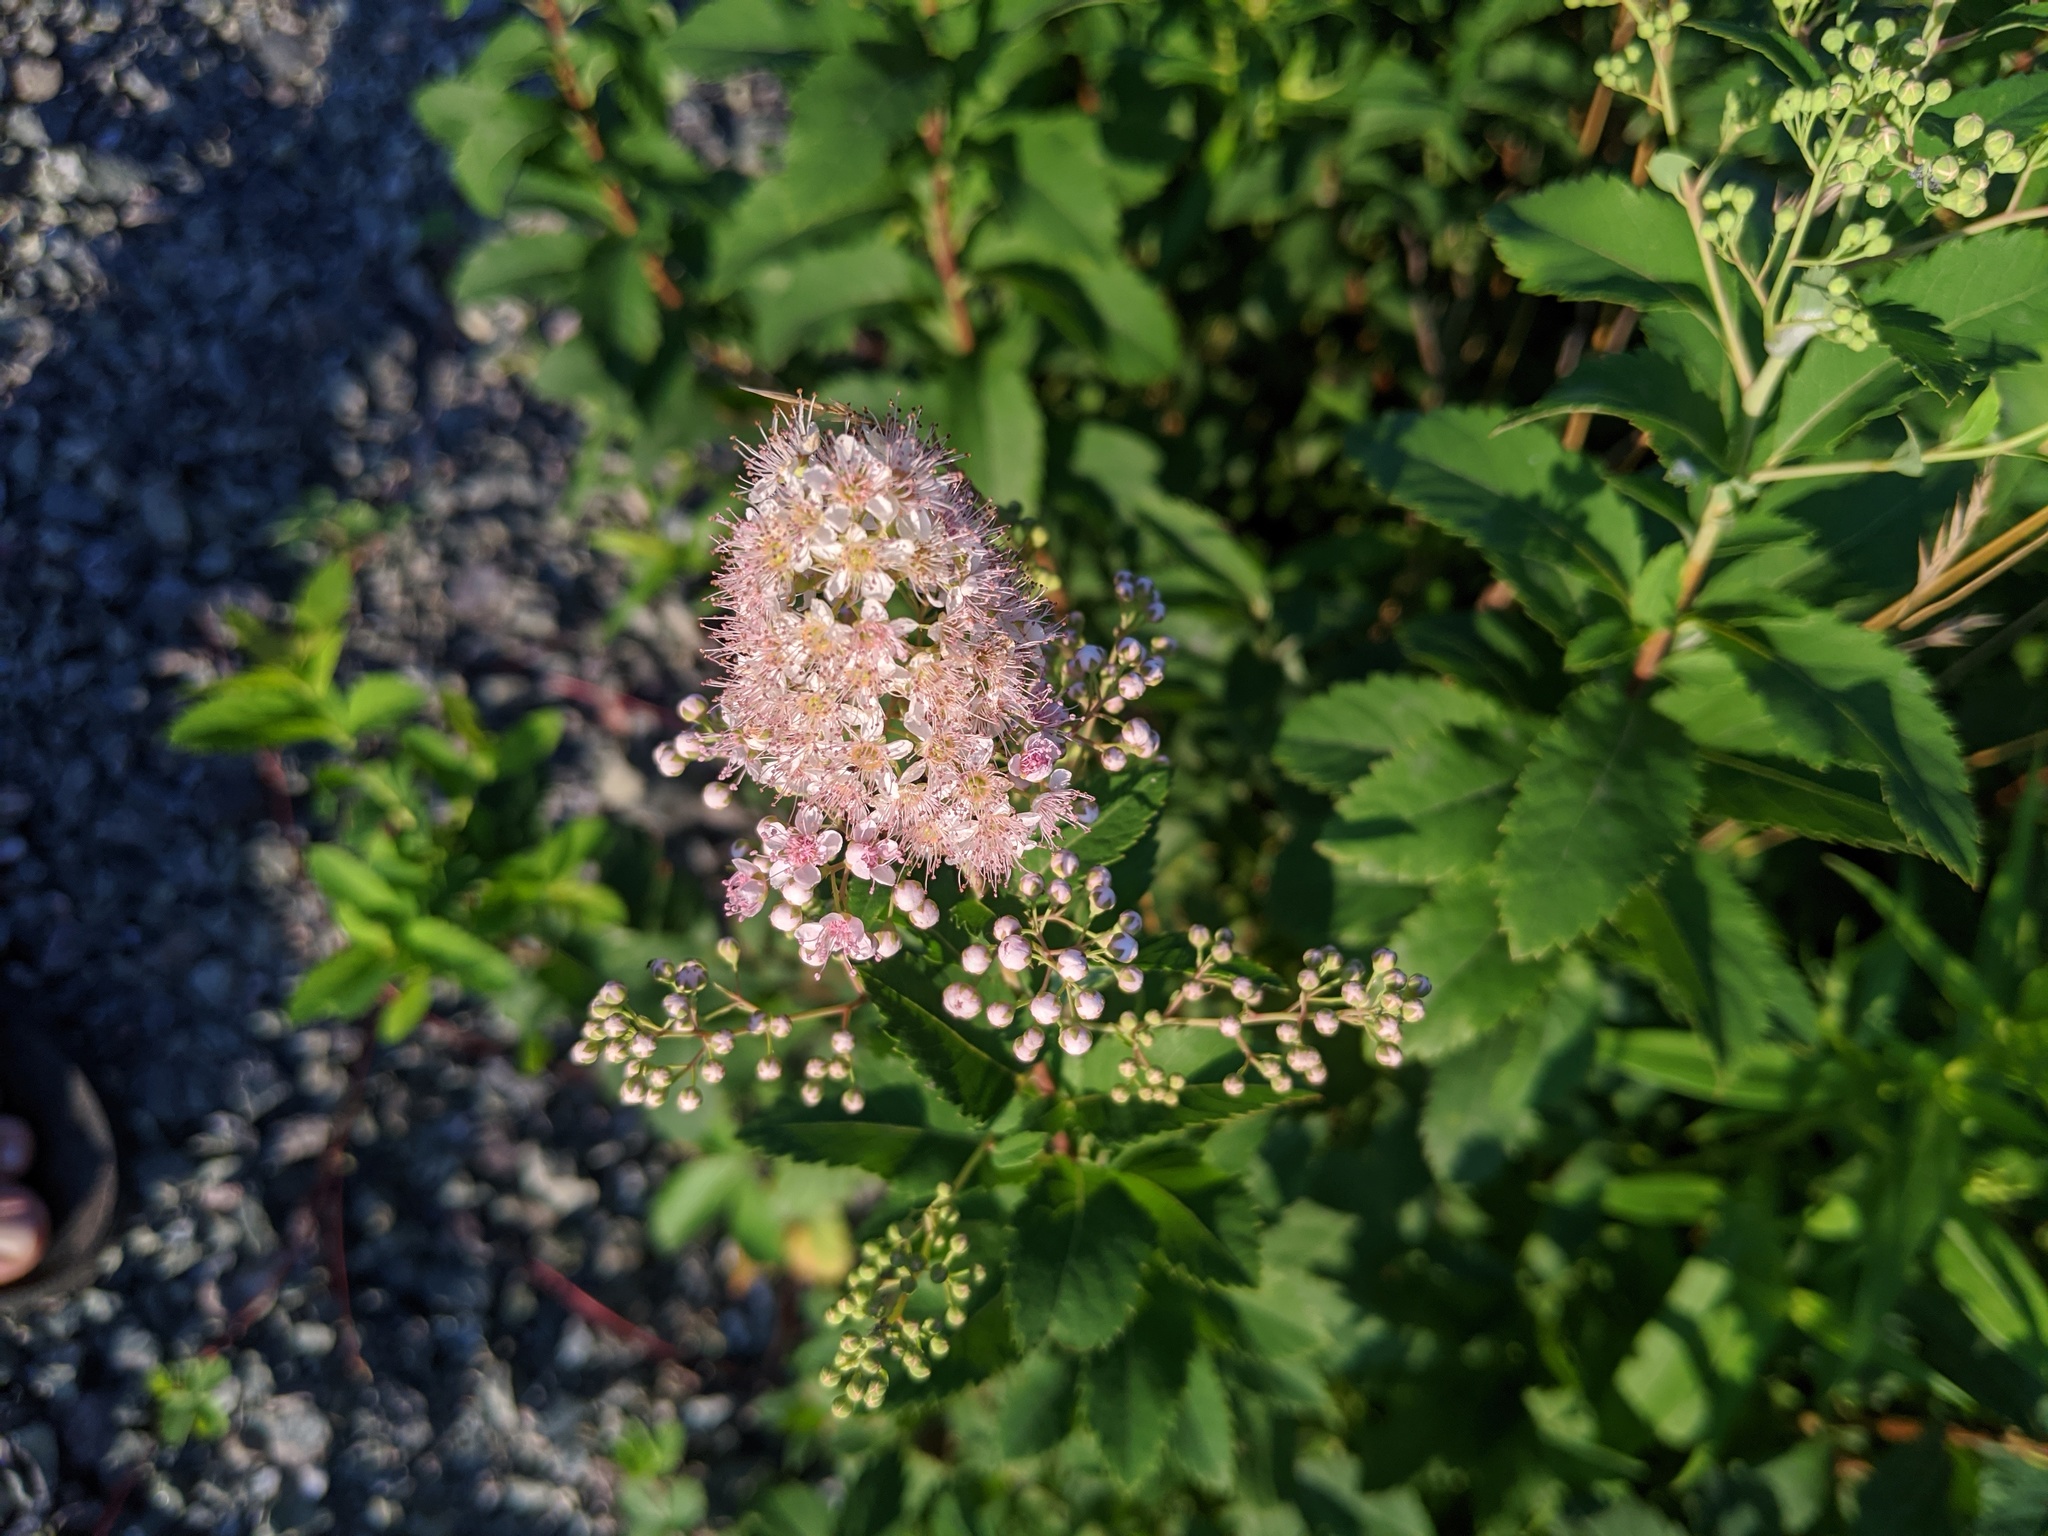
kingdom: Plantae
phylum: Tracheophyta
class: Magnoliopsida
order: Rosales
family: Rosaceae
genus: Spiraea
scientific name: Spiraea alba
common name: Pale bridewort
